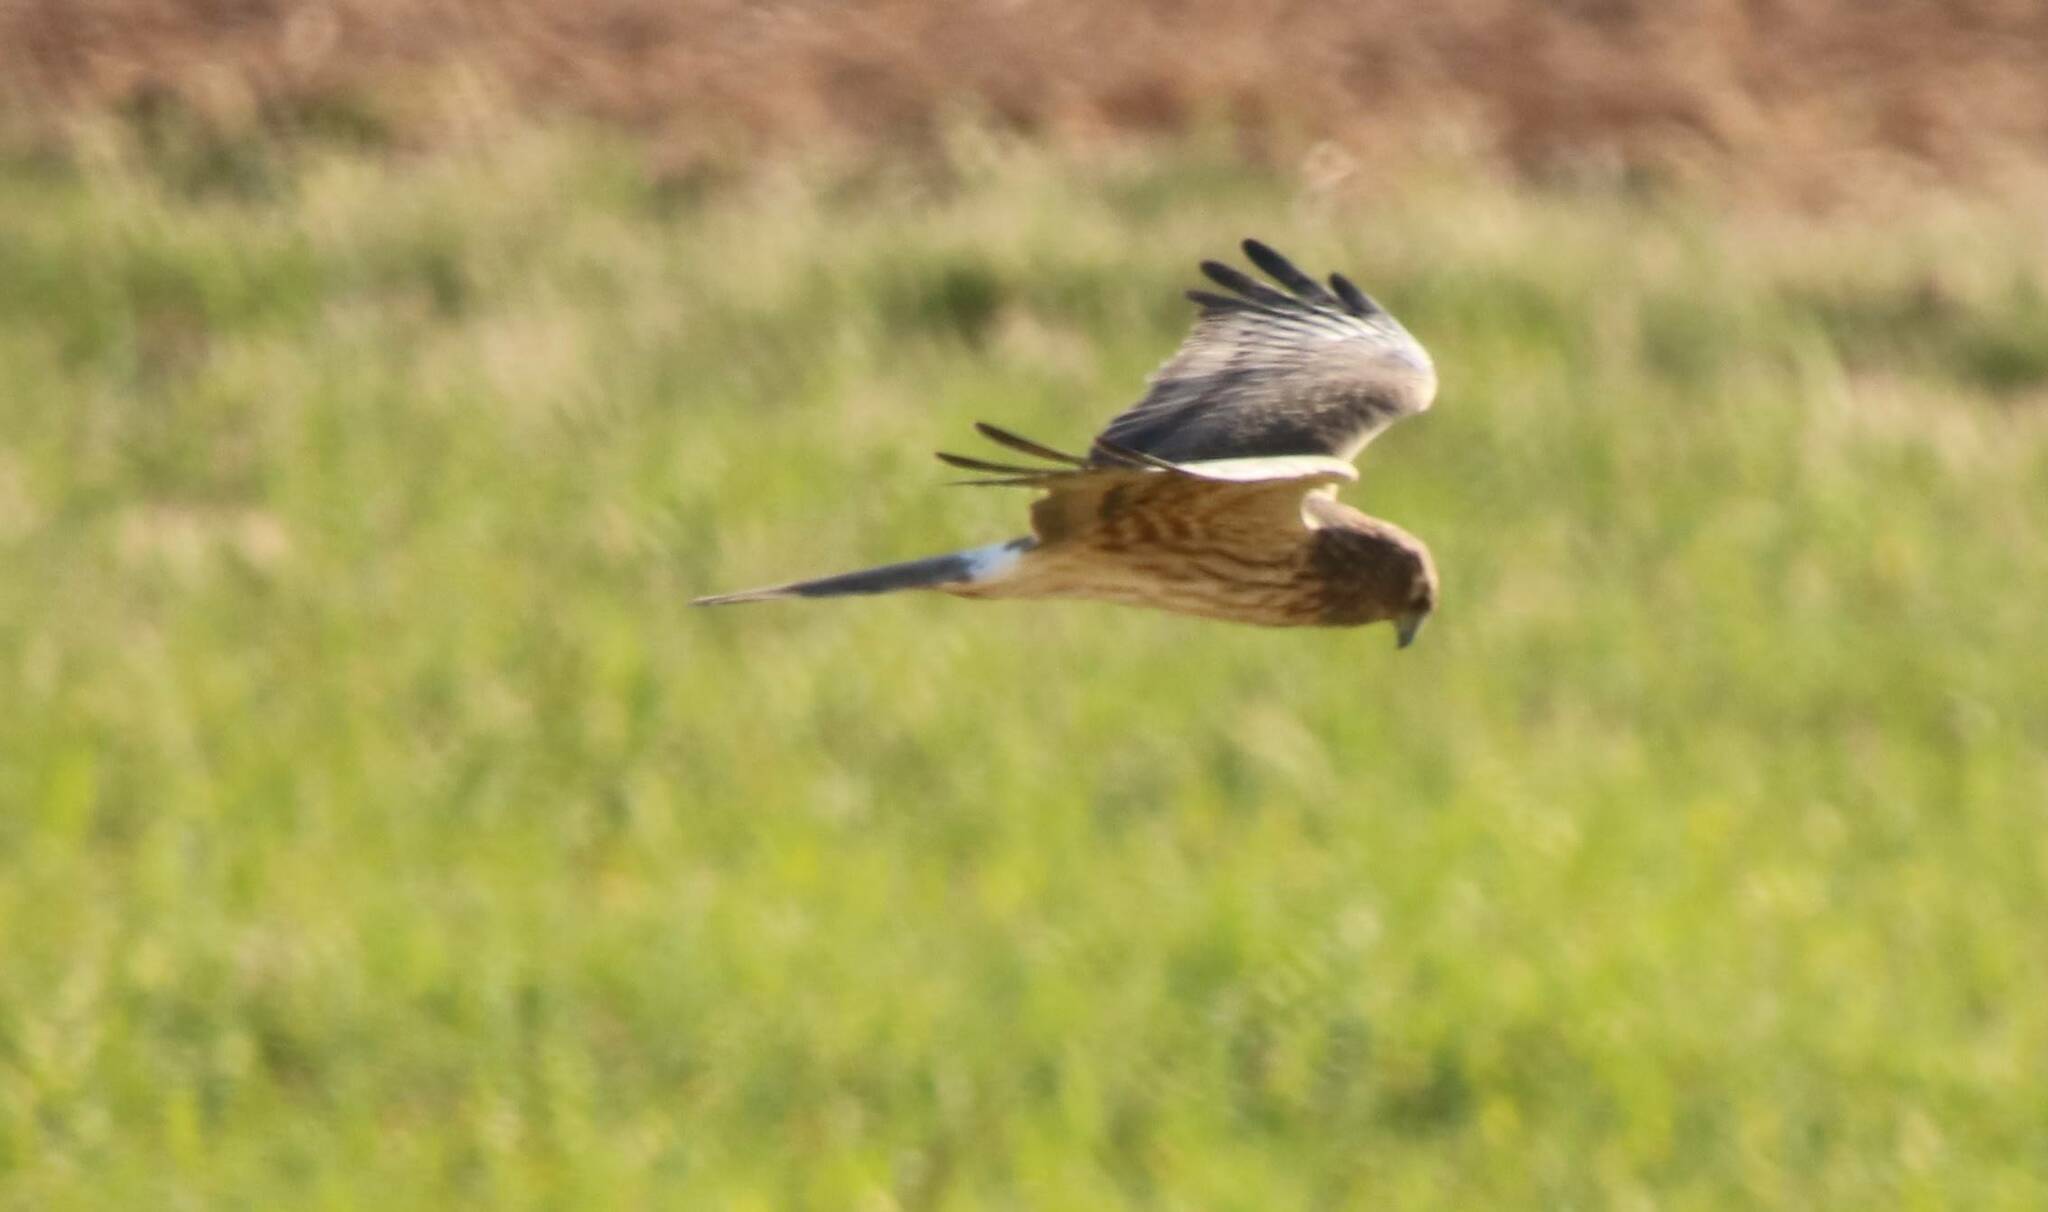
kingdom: Animalia
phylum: Chordata
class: Aves
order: Accipitriformes
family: Accipitridae
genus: Circus
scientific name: Circus pygargus
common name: Montagu's harrier
